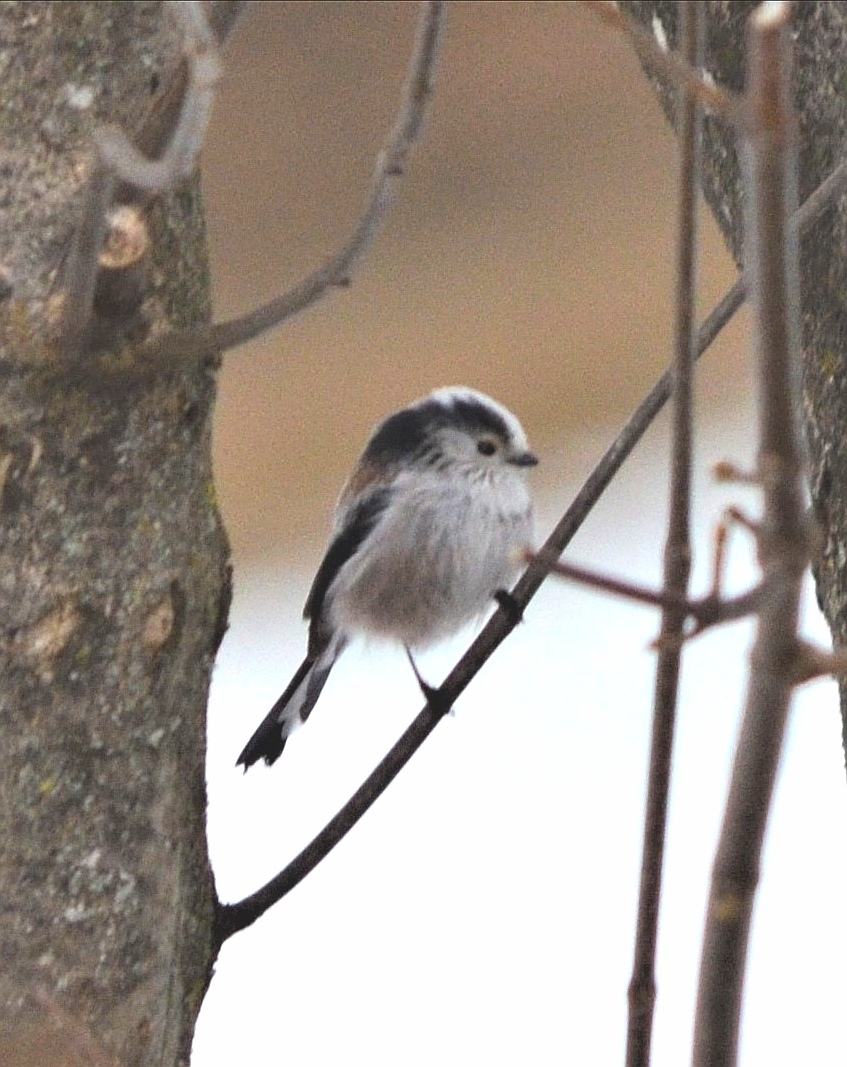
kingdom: Animalia
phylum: Chordata
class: Aves
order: Passeriformes
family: Aegithalidae
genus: Aegithalos
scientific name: Aegithalos caudatus
